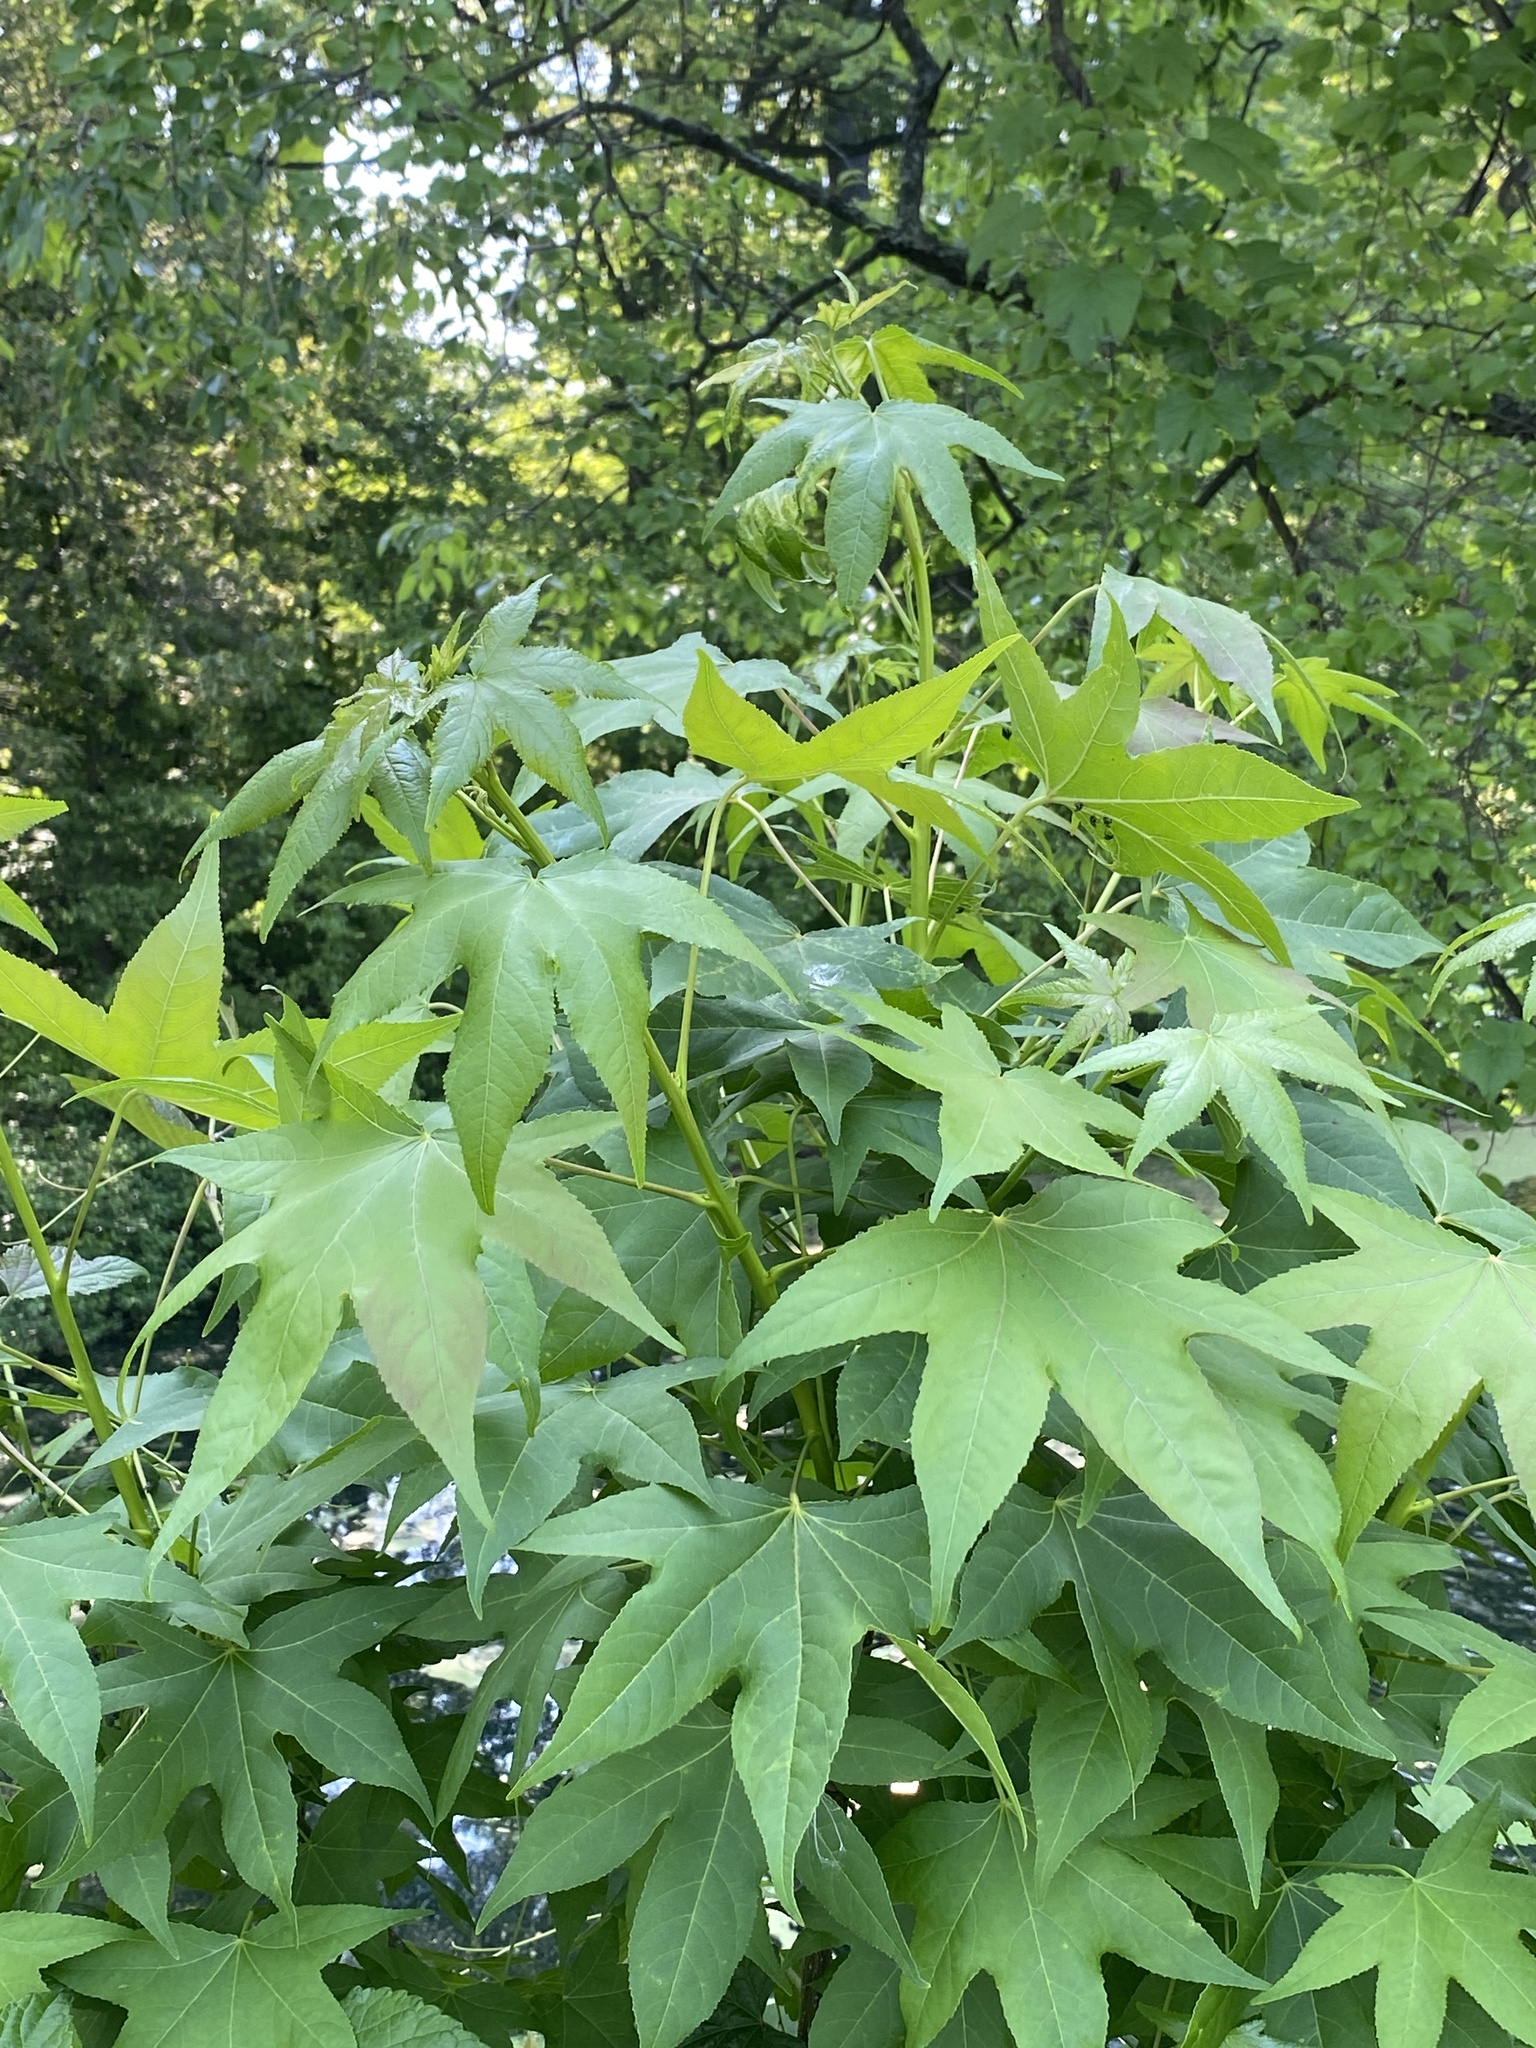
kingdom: Plantae
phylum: Tracheophyta
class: Magnoliopsida
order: Saxifragales
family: Altingiaceae
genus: Liquidambar
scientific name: Liquidambar styraciflua
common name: Sweet gum
